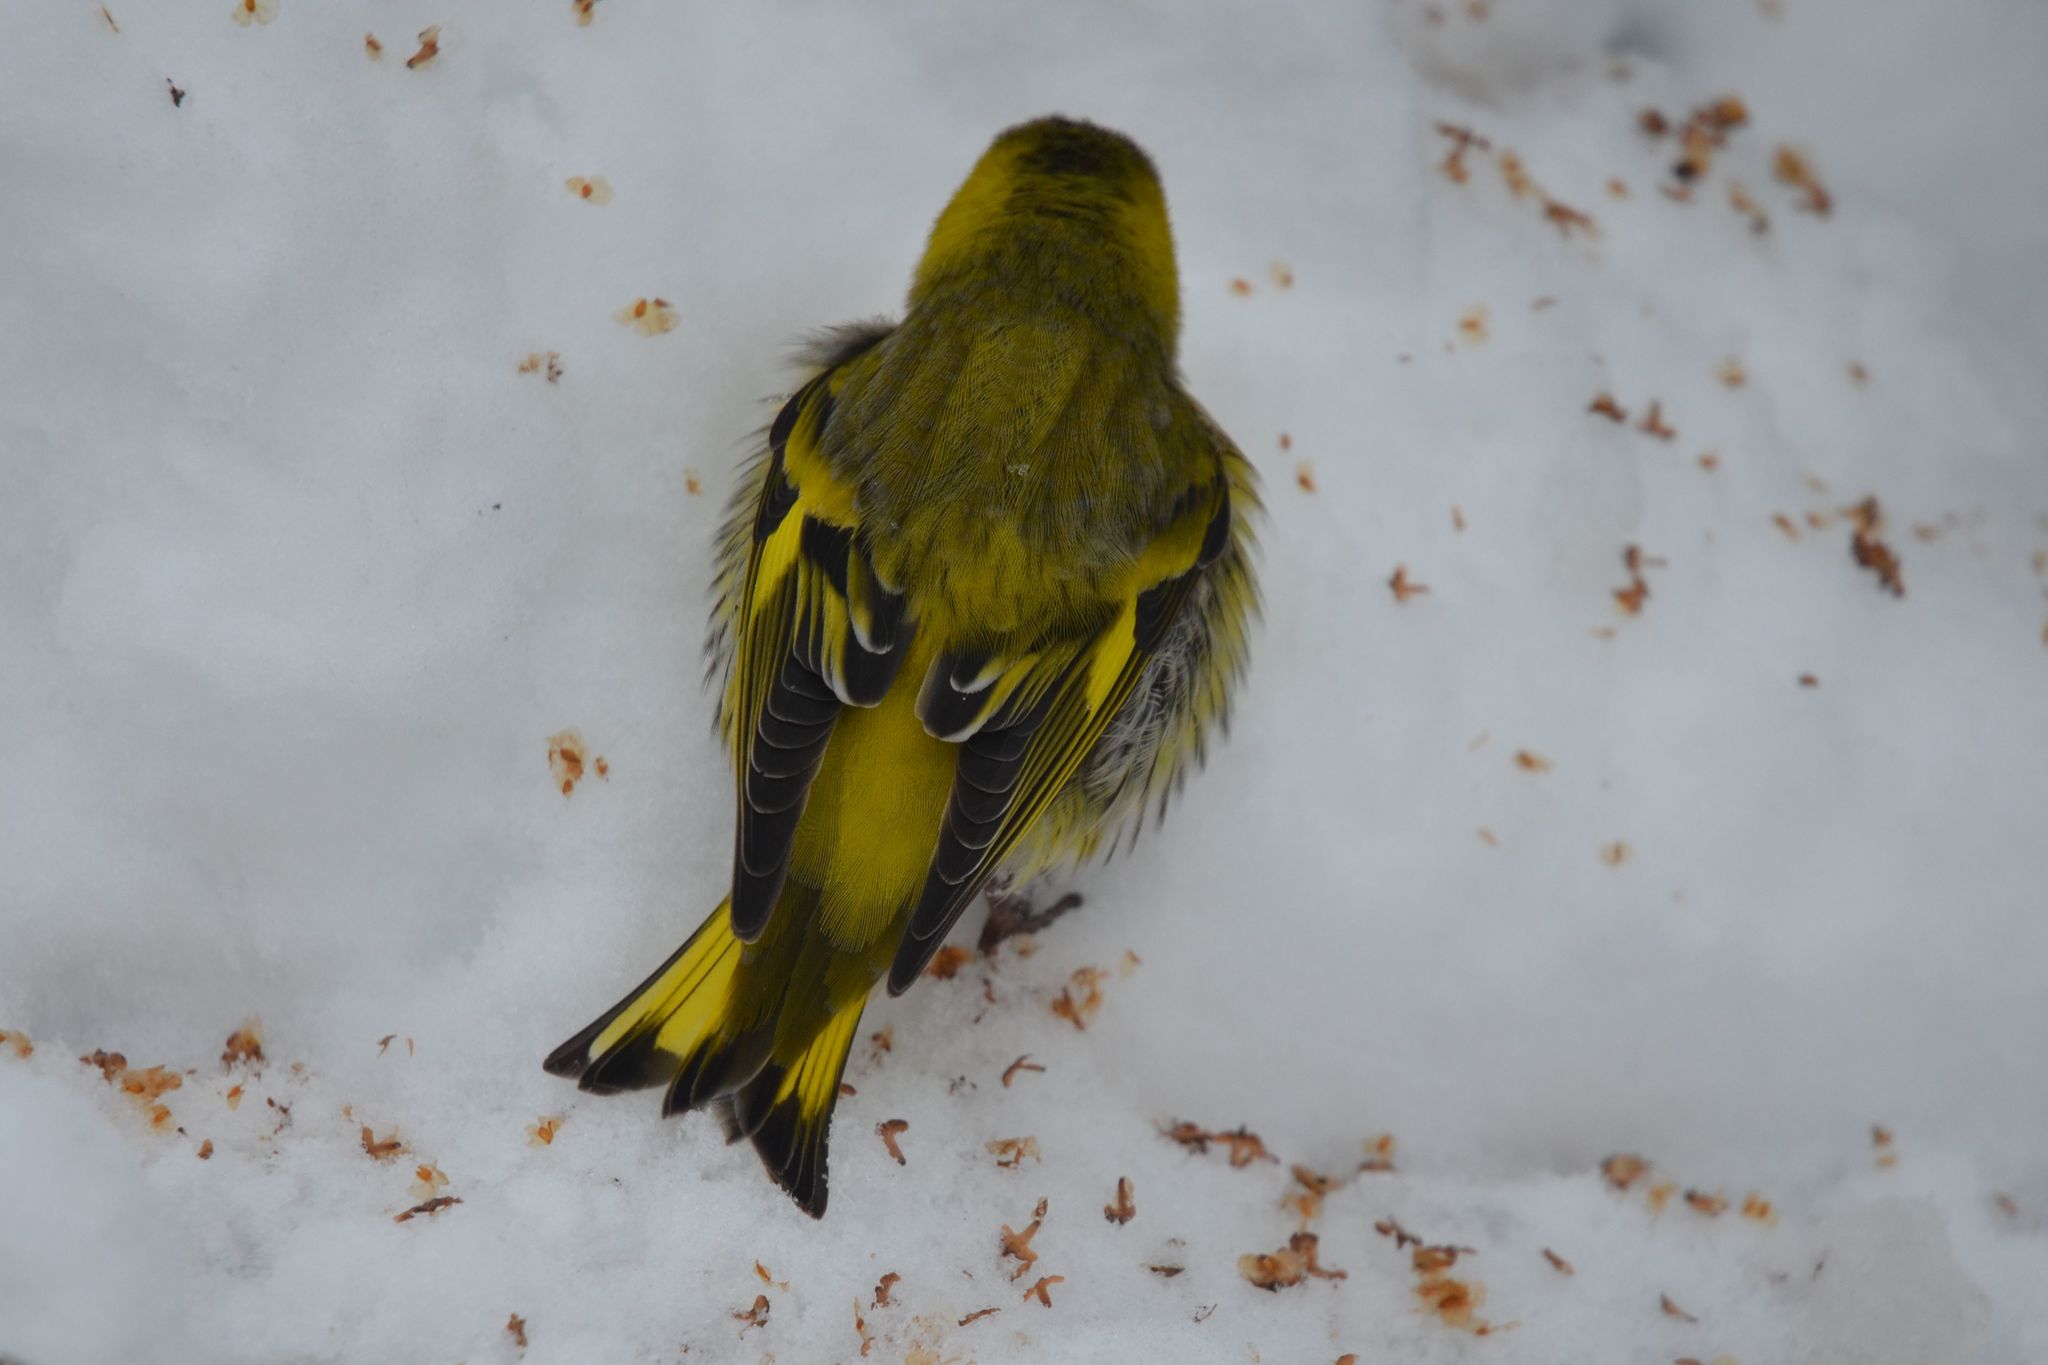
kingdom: Animalia
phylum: Chordata
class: Aves
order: Passeriformes
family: Fringillidae
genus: Spinus
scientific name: Spinus spinus
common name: Eurasian siskin
